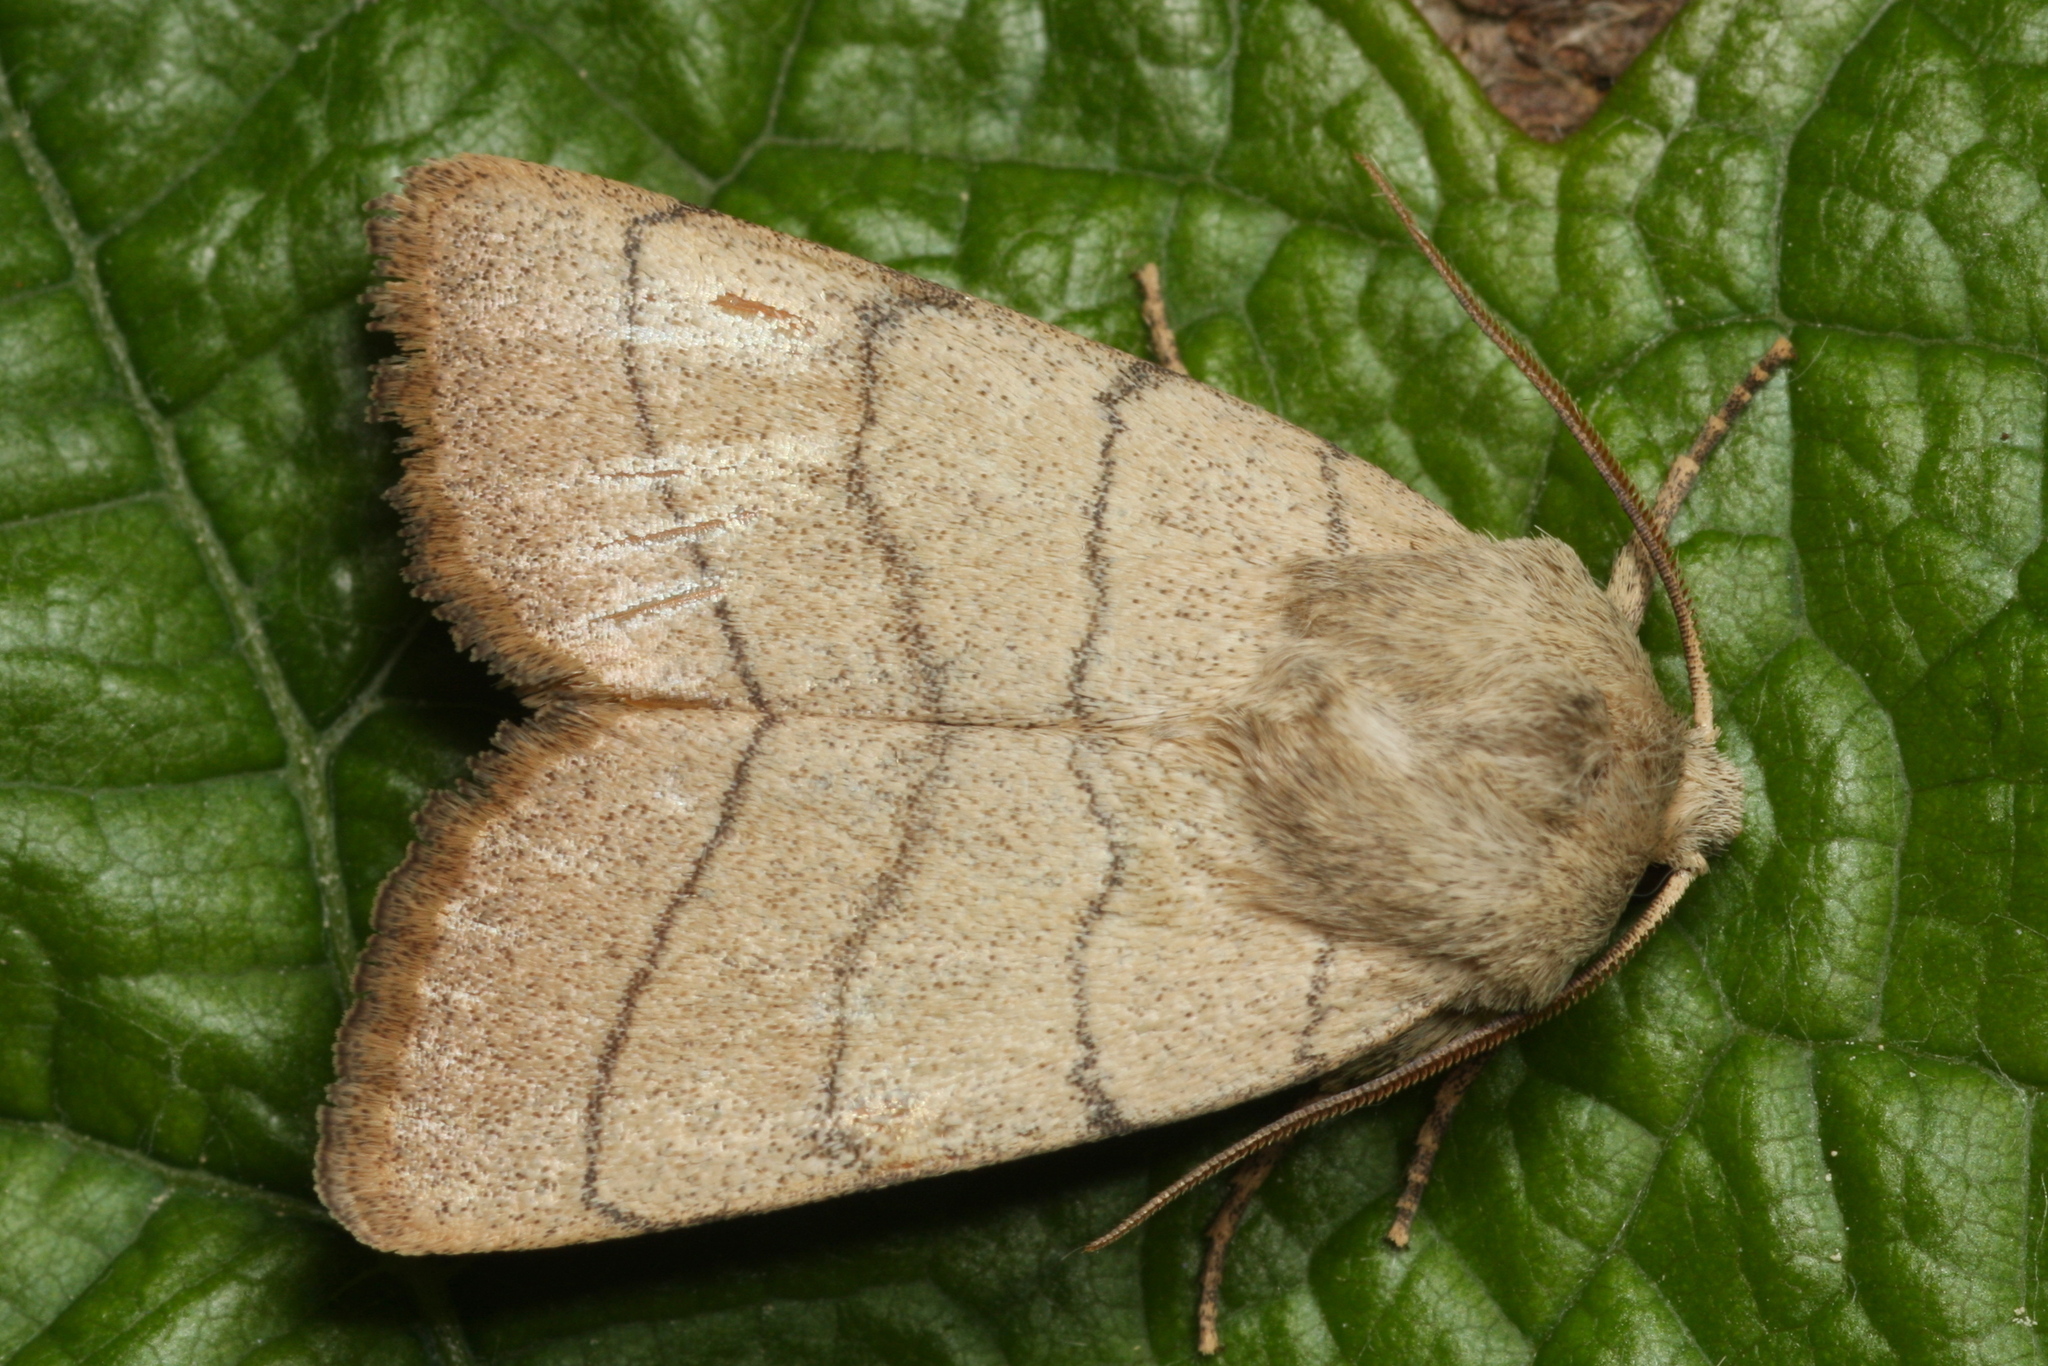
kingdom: Animalia
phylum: Arthropoda
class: Insecta
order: Lepidoptera
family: Noctuidae
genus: Charanyca
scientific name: Charanyca trigrammica
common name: Treble lines
